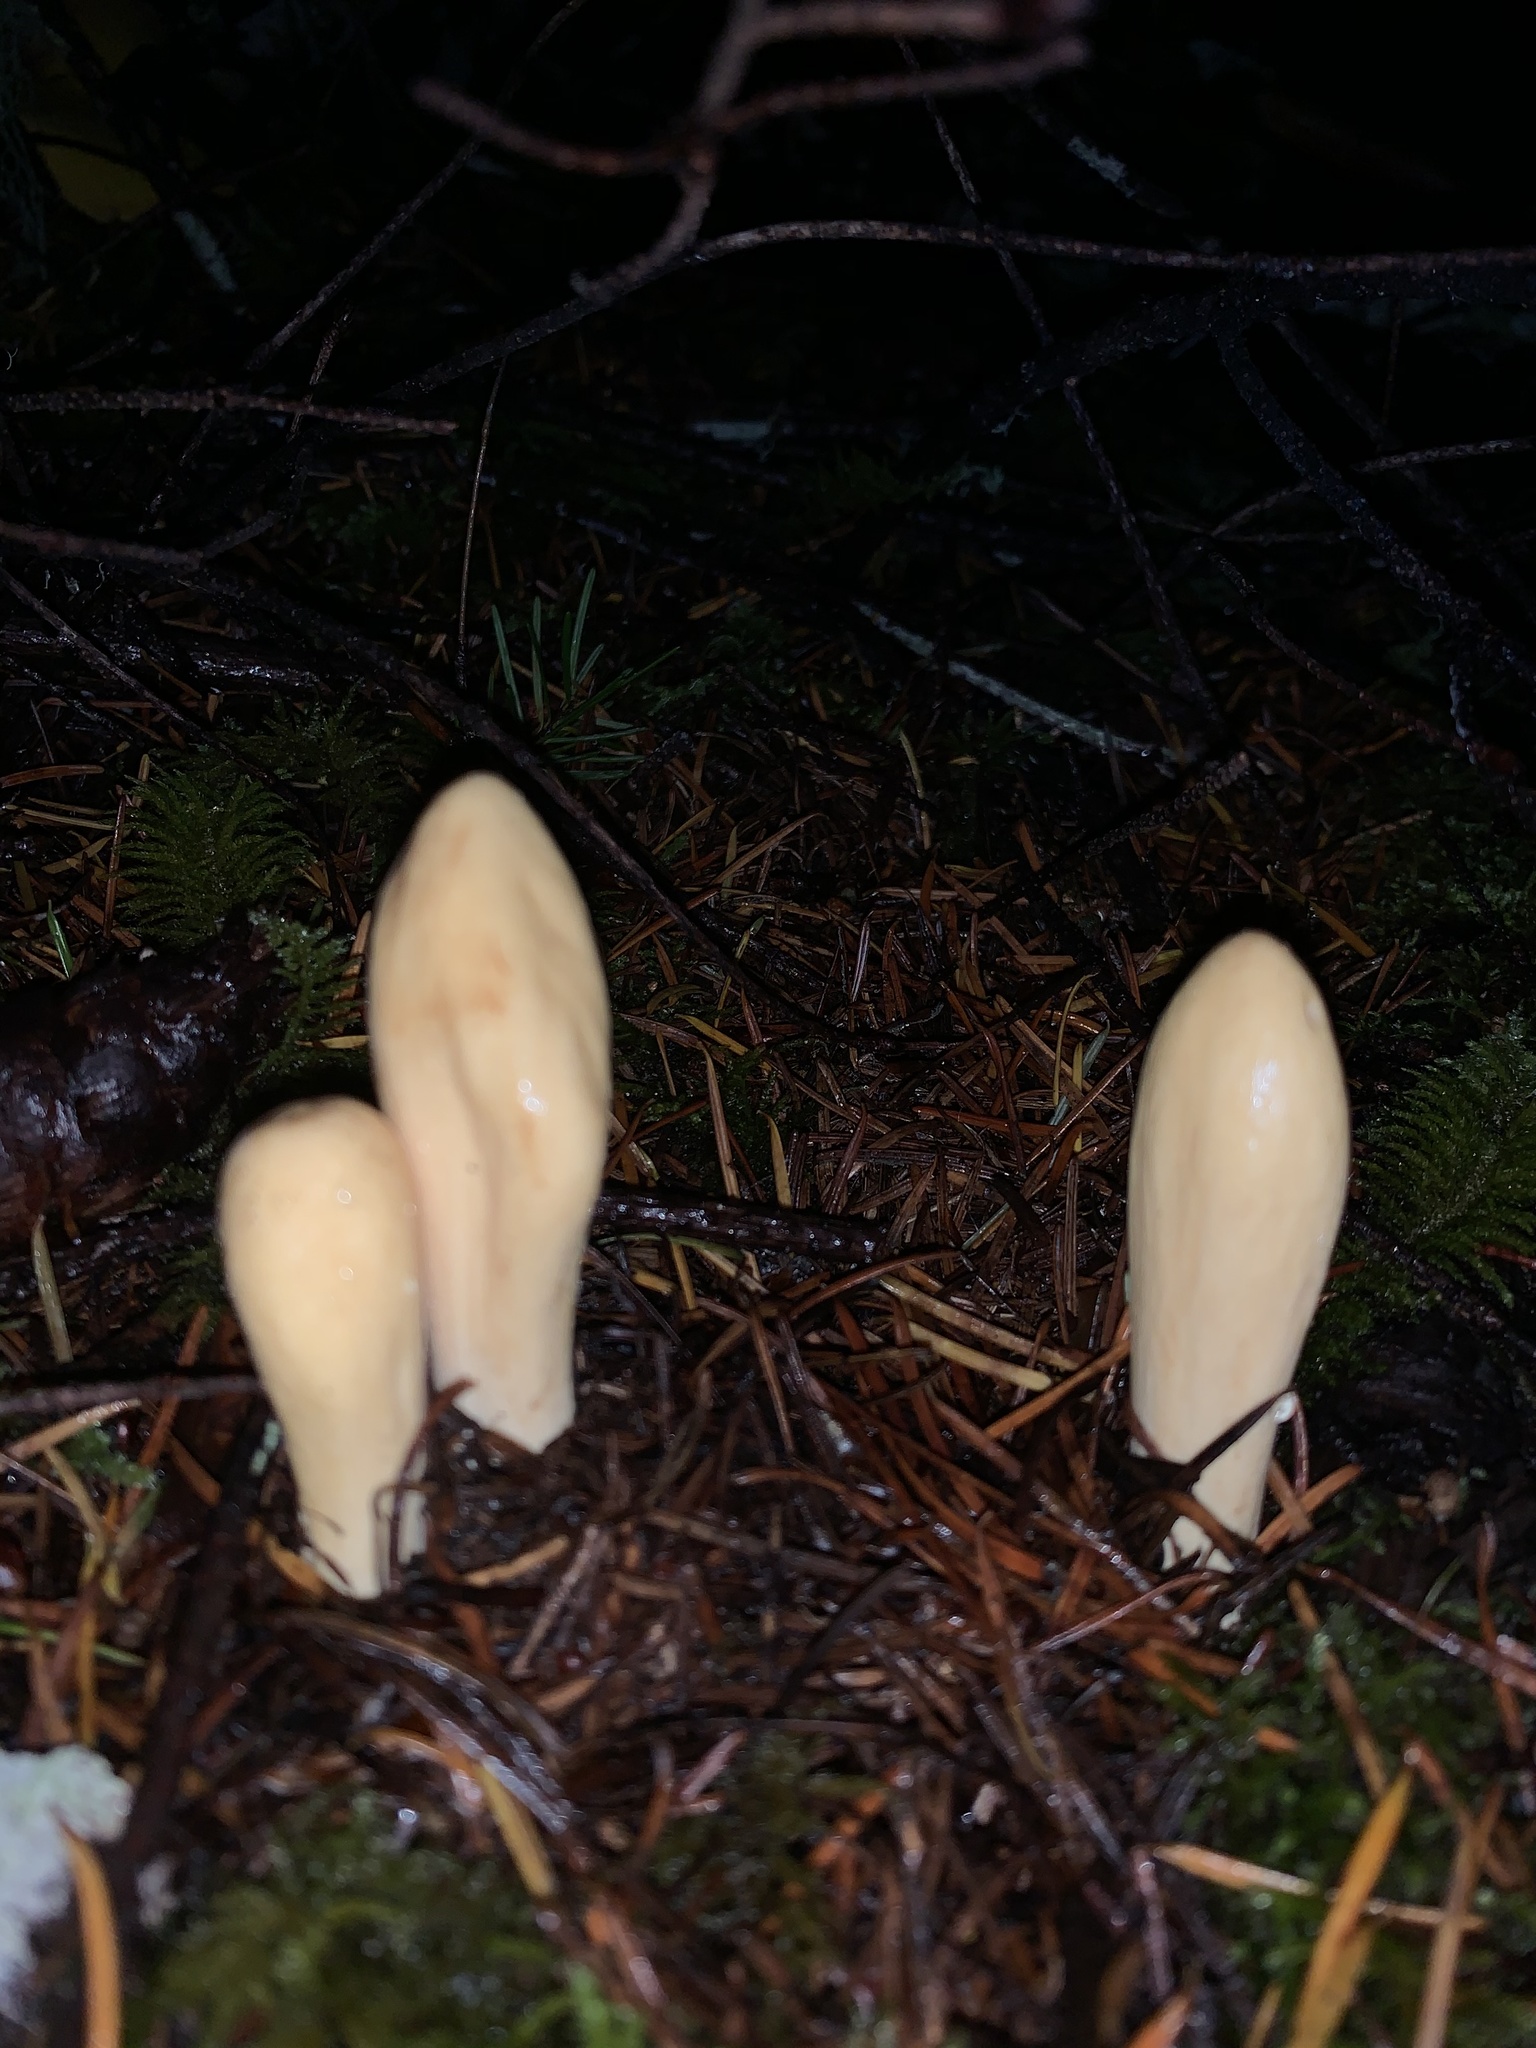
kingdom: Fungi
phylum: Basidiomycota
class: Agaricomycetes
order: Gomphales
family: Clavariadelphaceae
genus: Clavariadelphus
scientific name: Clavariadelphus occidentalis
